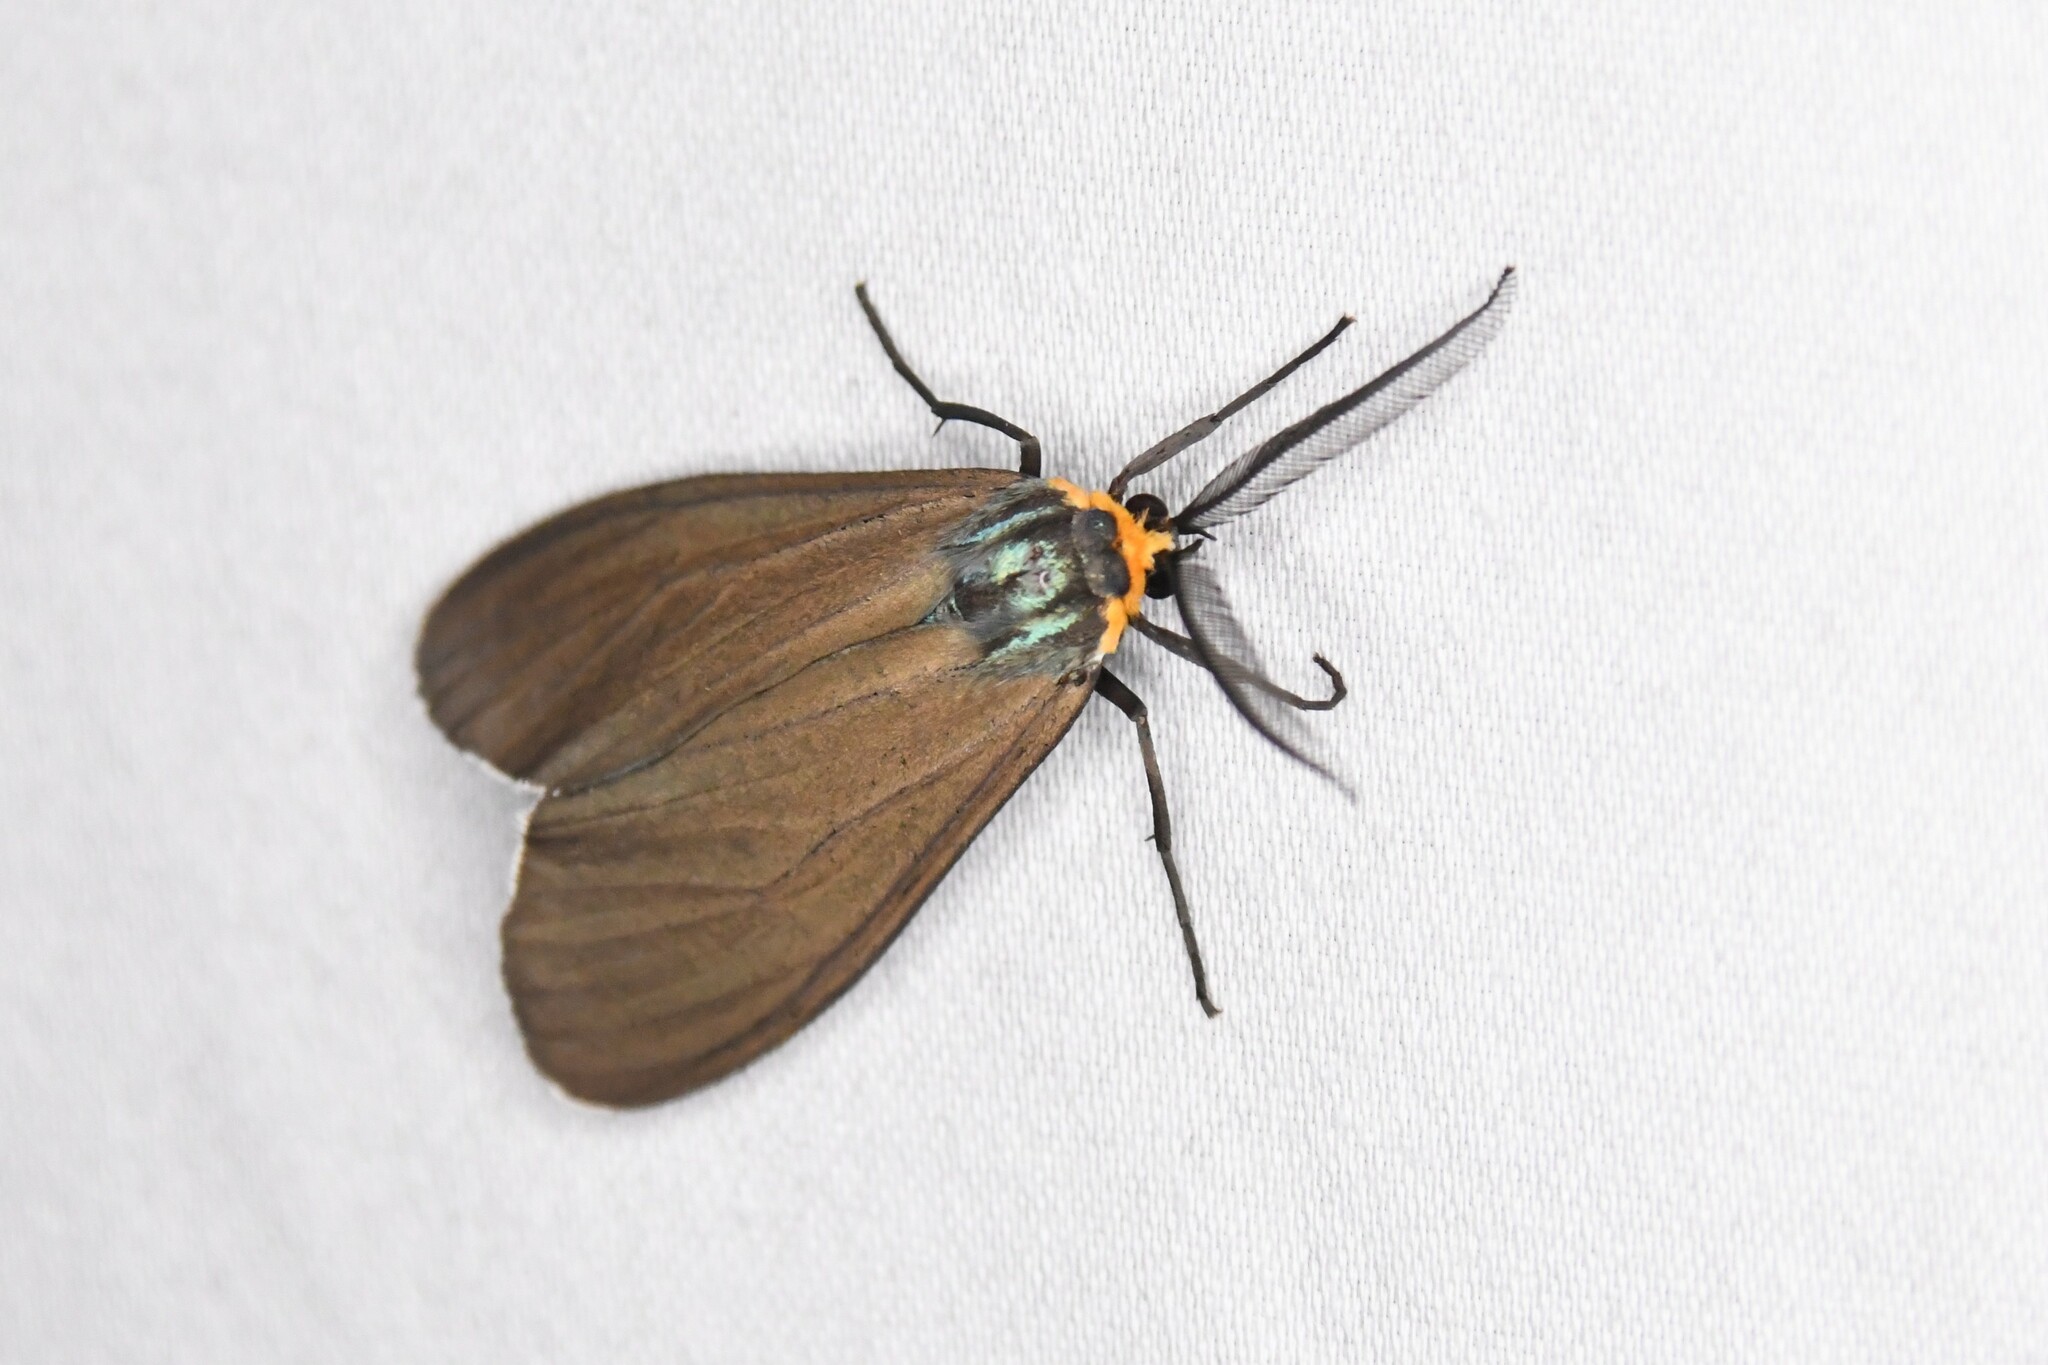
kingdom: Animalia
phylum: Arthropoda
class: Insecta
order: Lepidoptera
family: Erebidae
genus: Ctenucha
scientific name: Ctenucha virginica
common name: Virginia ctenucha moth
